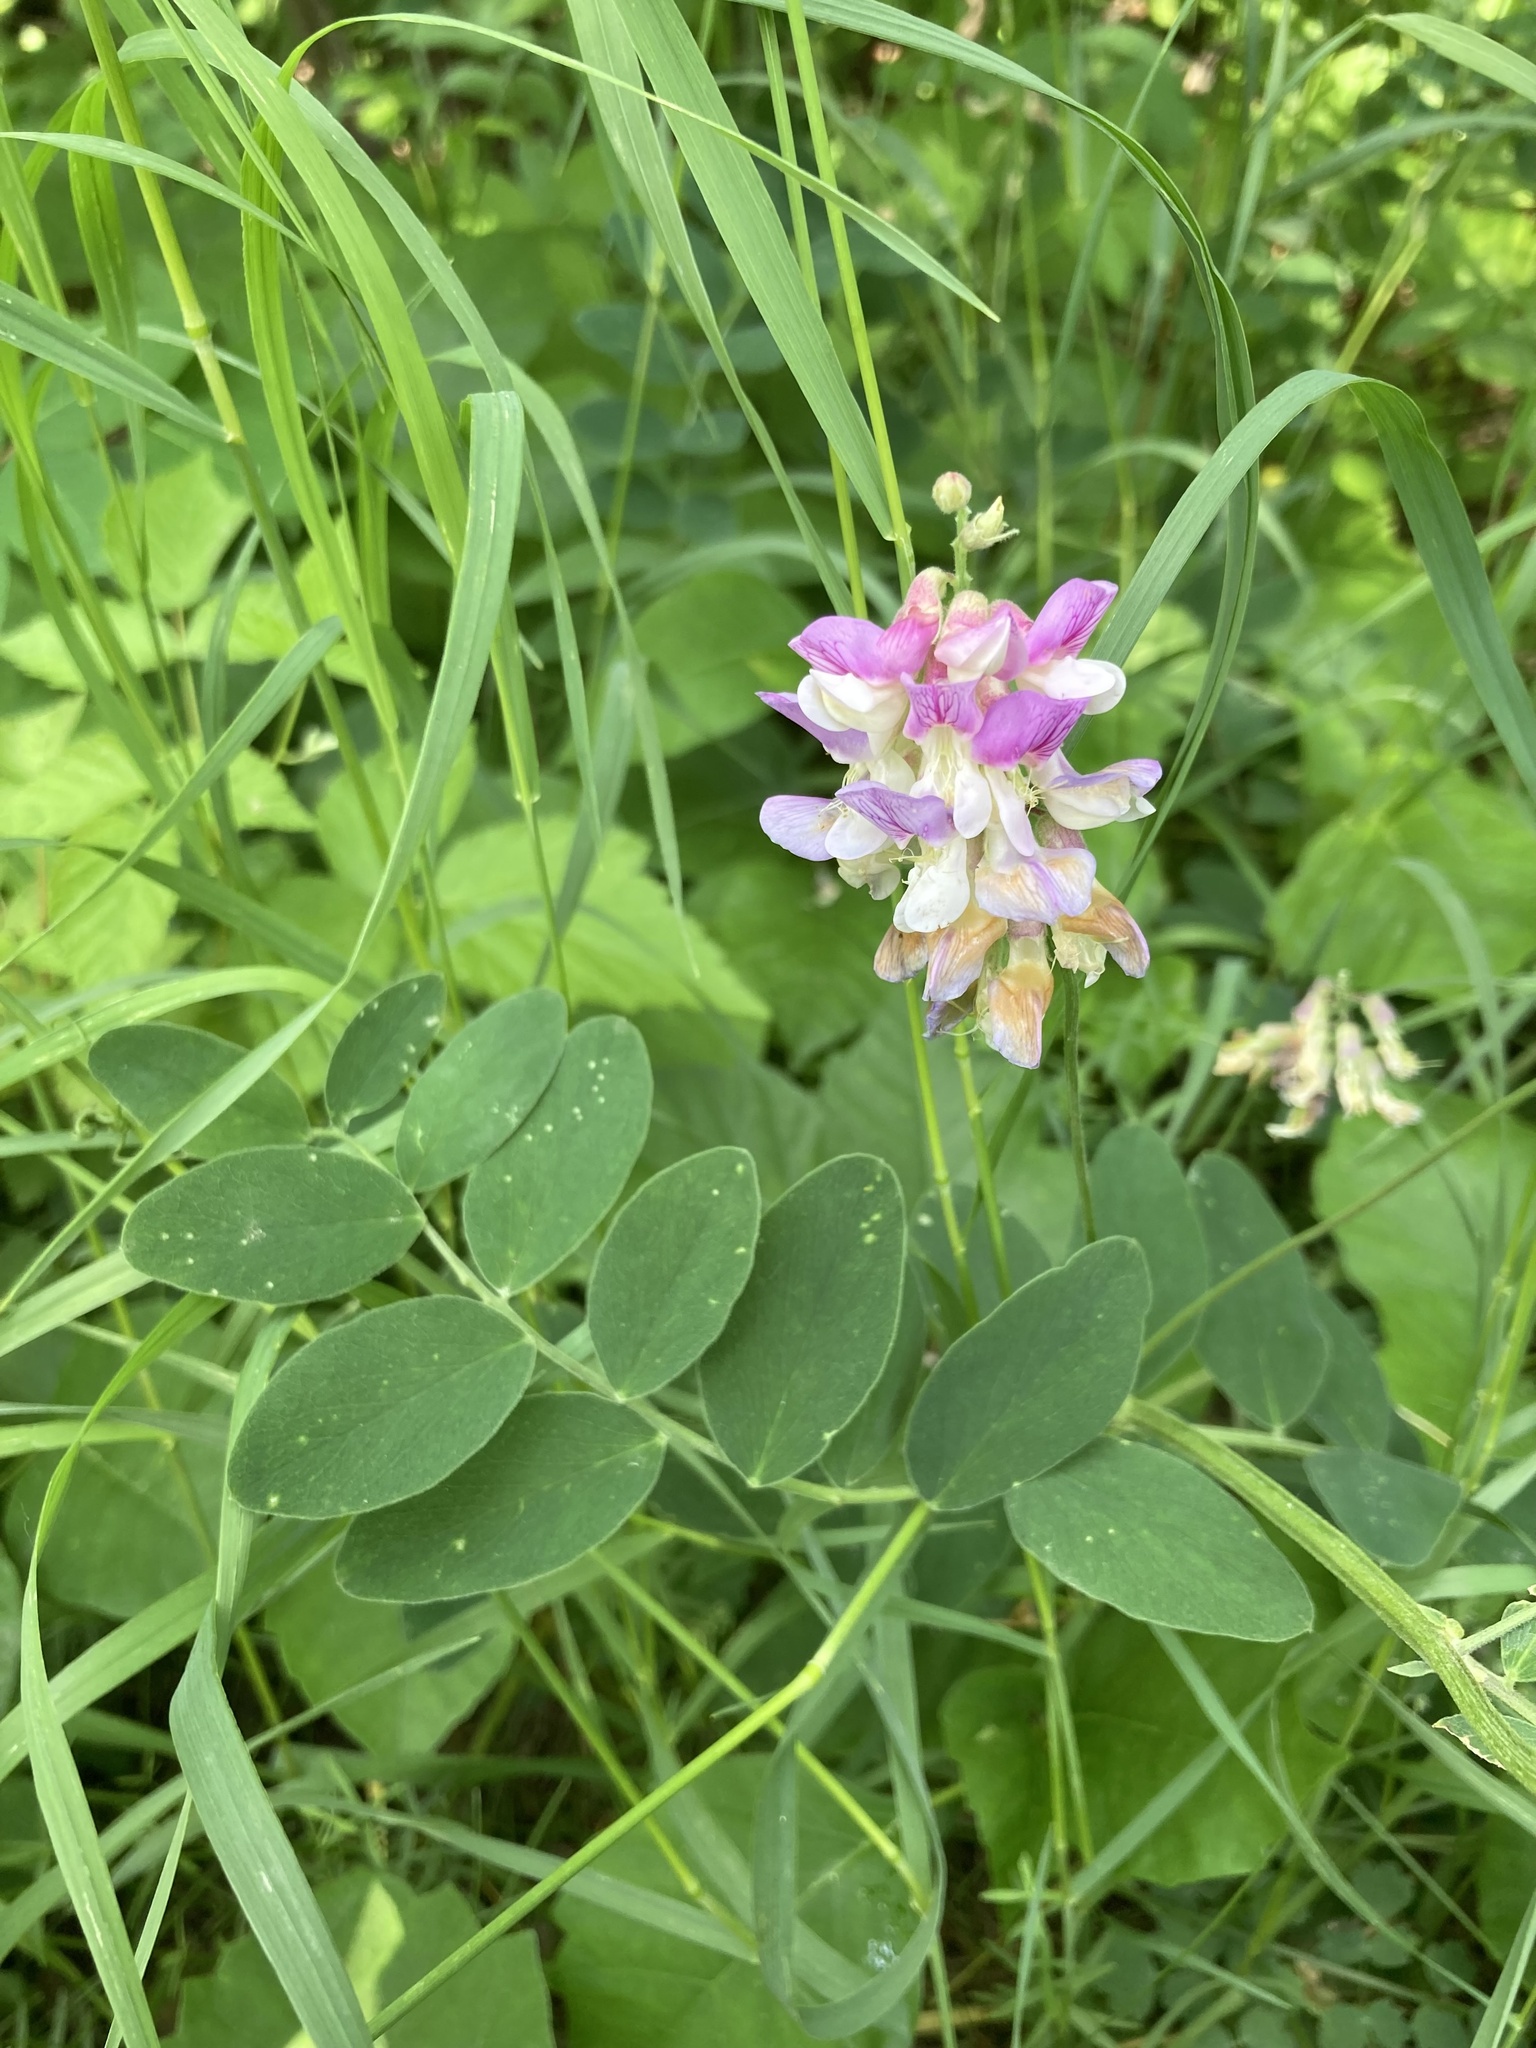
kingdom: Plantae
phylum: Tracheophyta
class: Magnoliopsida
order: Fabales
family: Fabaceae
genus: Lathyrus
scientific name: Lathyrus venosus
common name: Forest-pea
